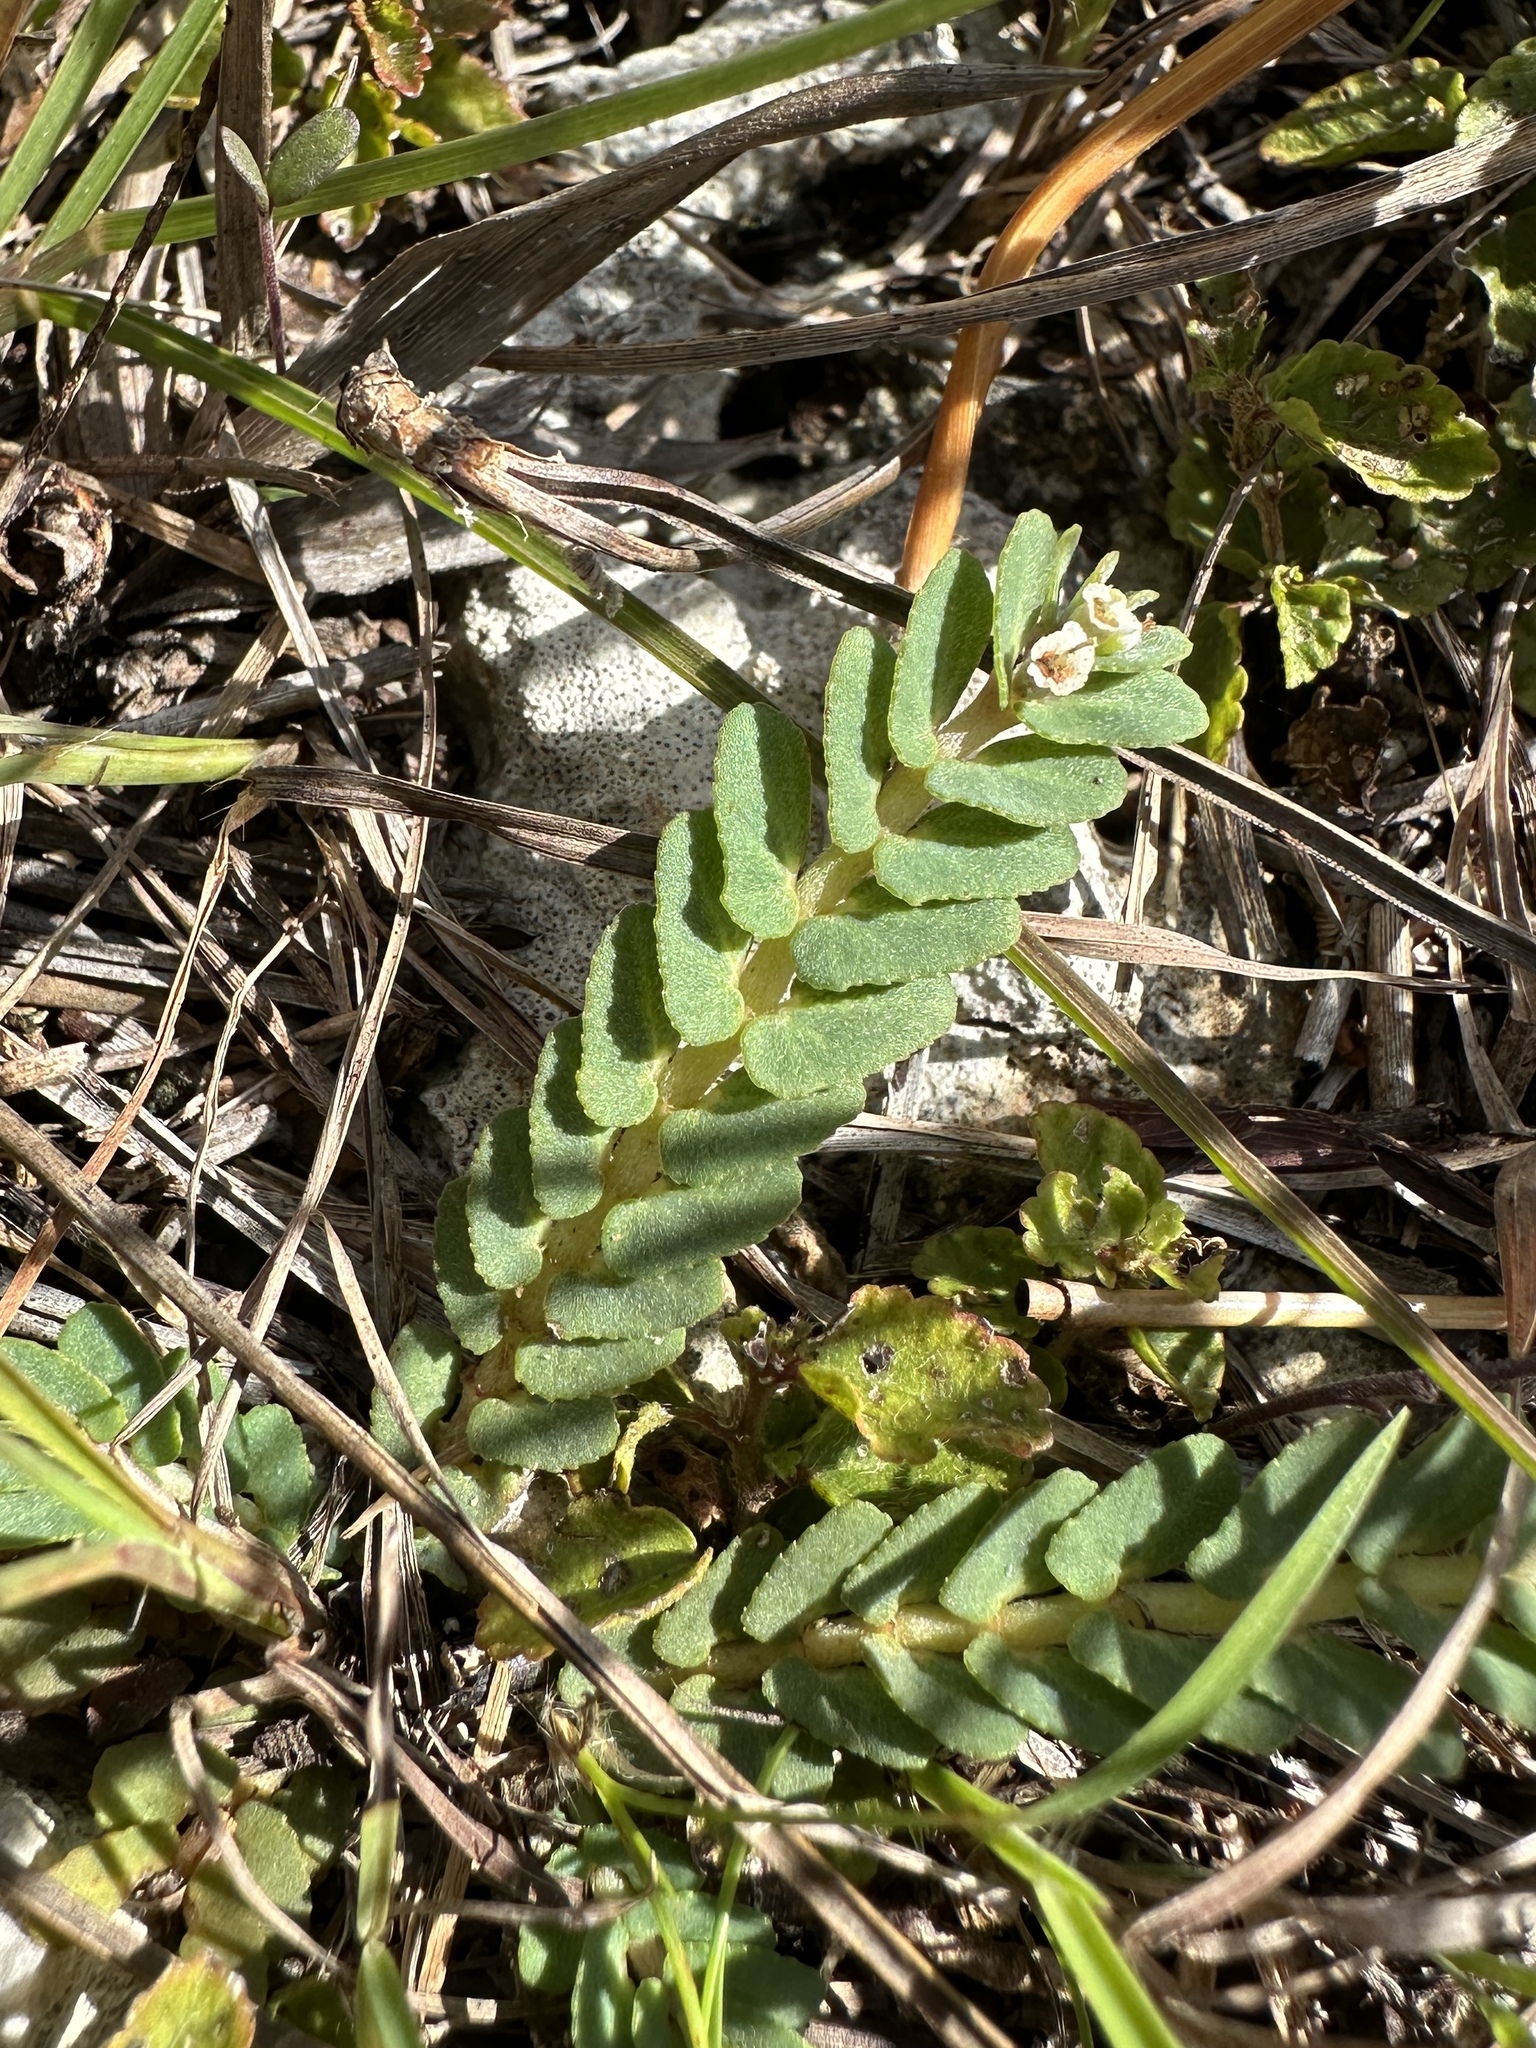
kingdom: Plantae
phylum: Tracheophyta
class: Magnoliopsida
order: Malpighiales
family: Euphorbiaceae
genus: Euphorbia
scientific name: Euphorbia pergamena
